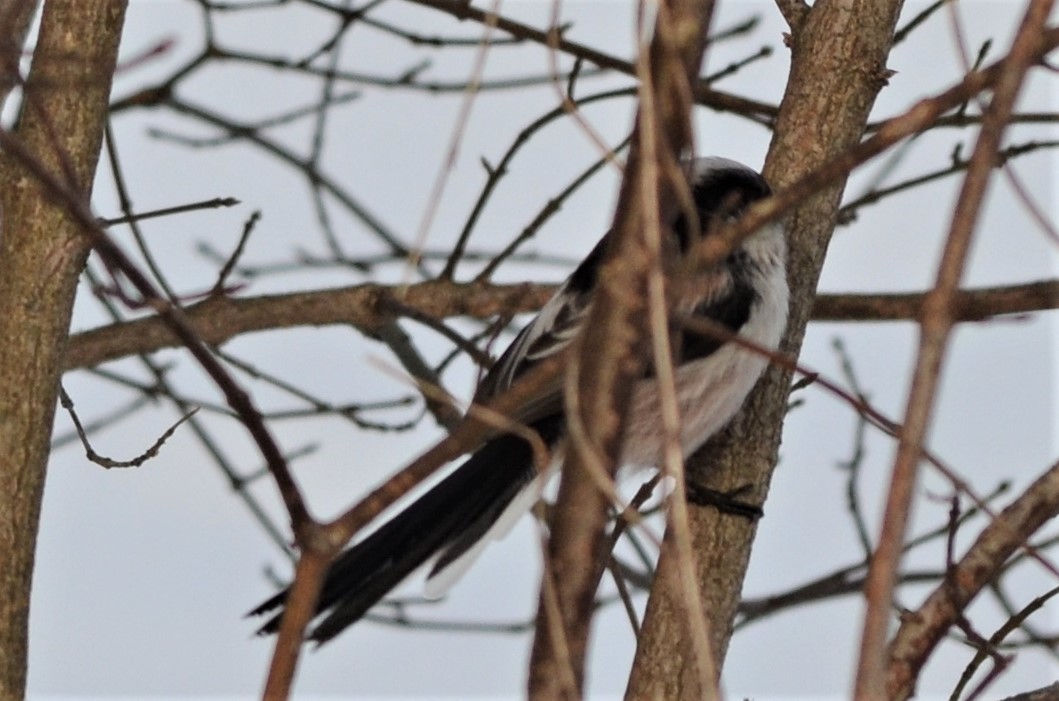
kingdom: Animalia
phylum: Chordata
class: Aves
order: Passeriformes
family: Aegithalidae
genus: Aegithalos
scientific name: Aegithalos caudatus
